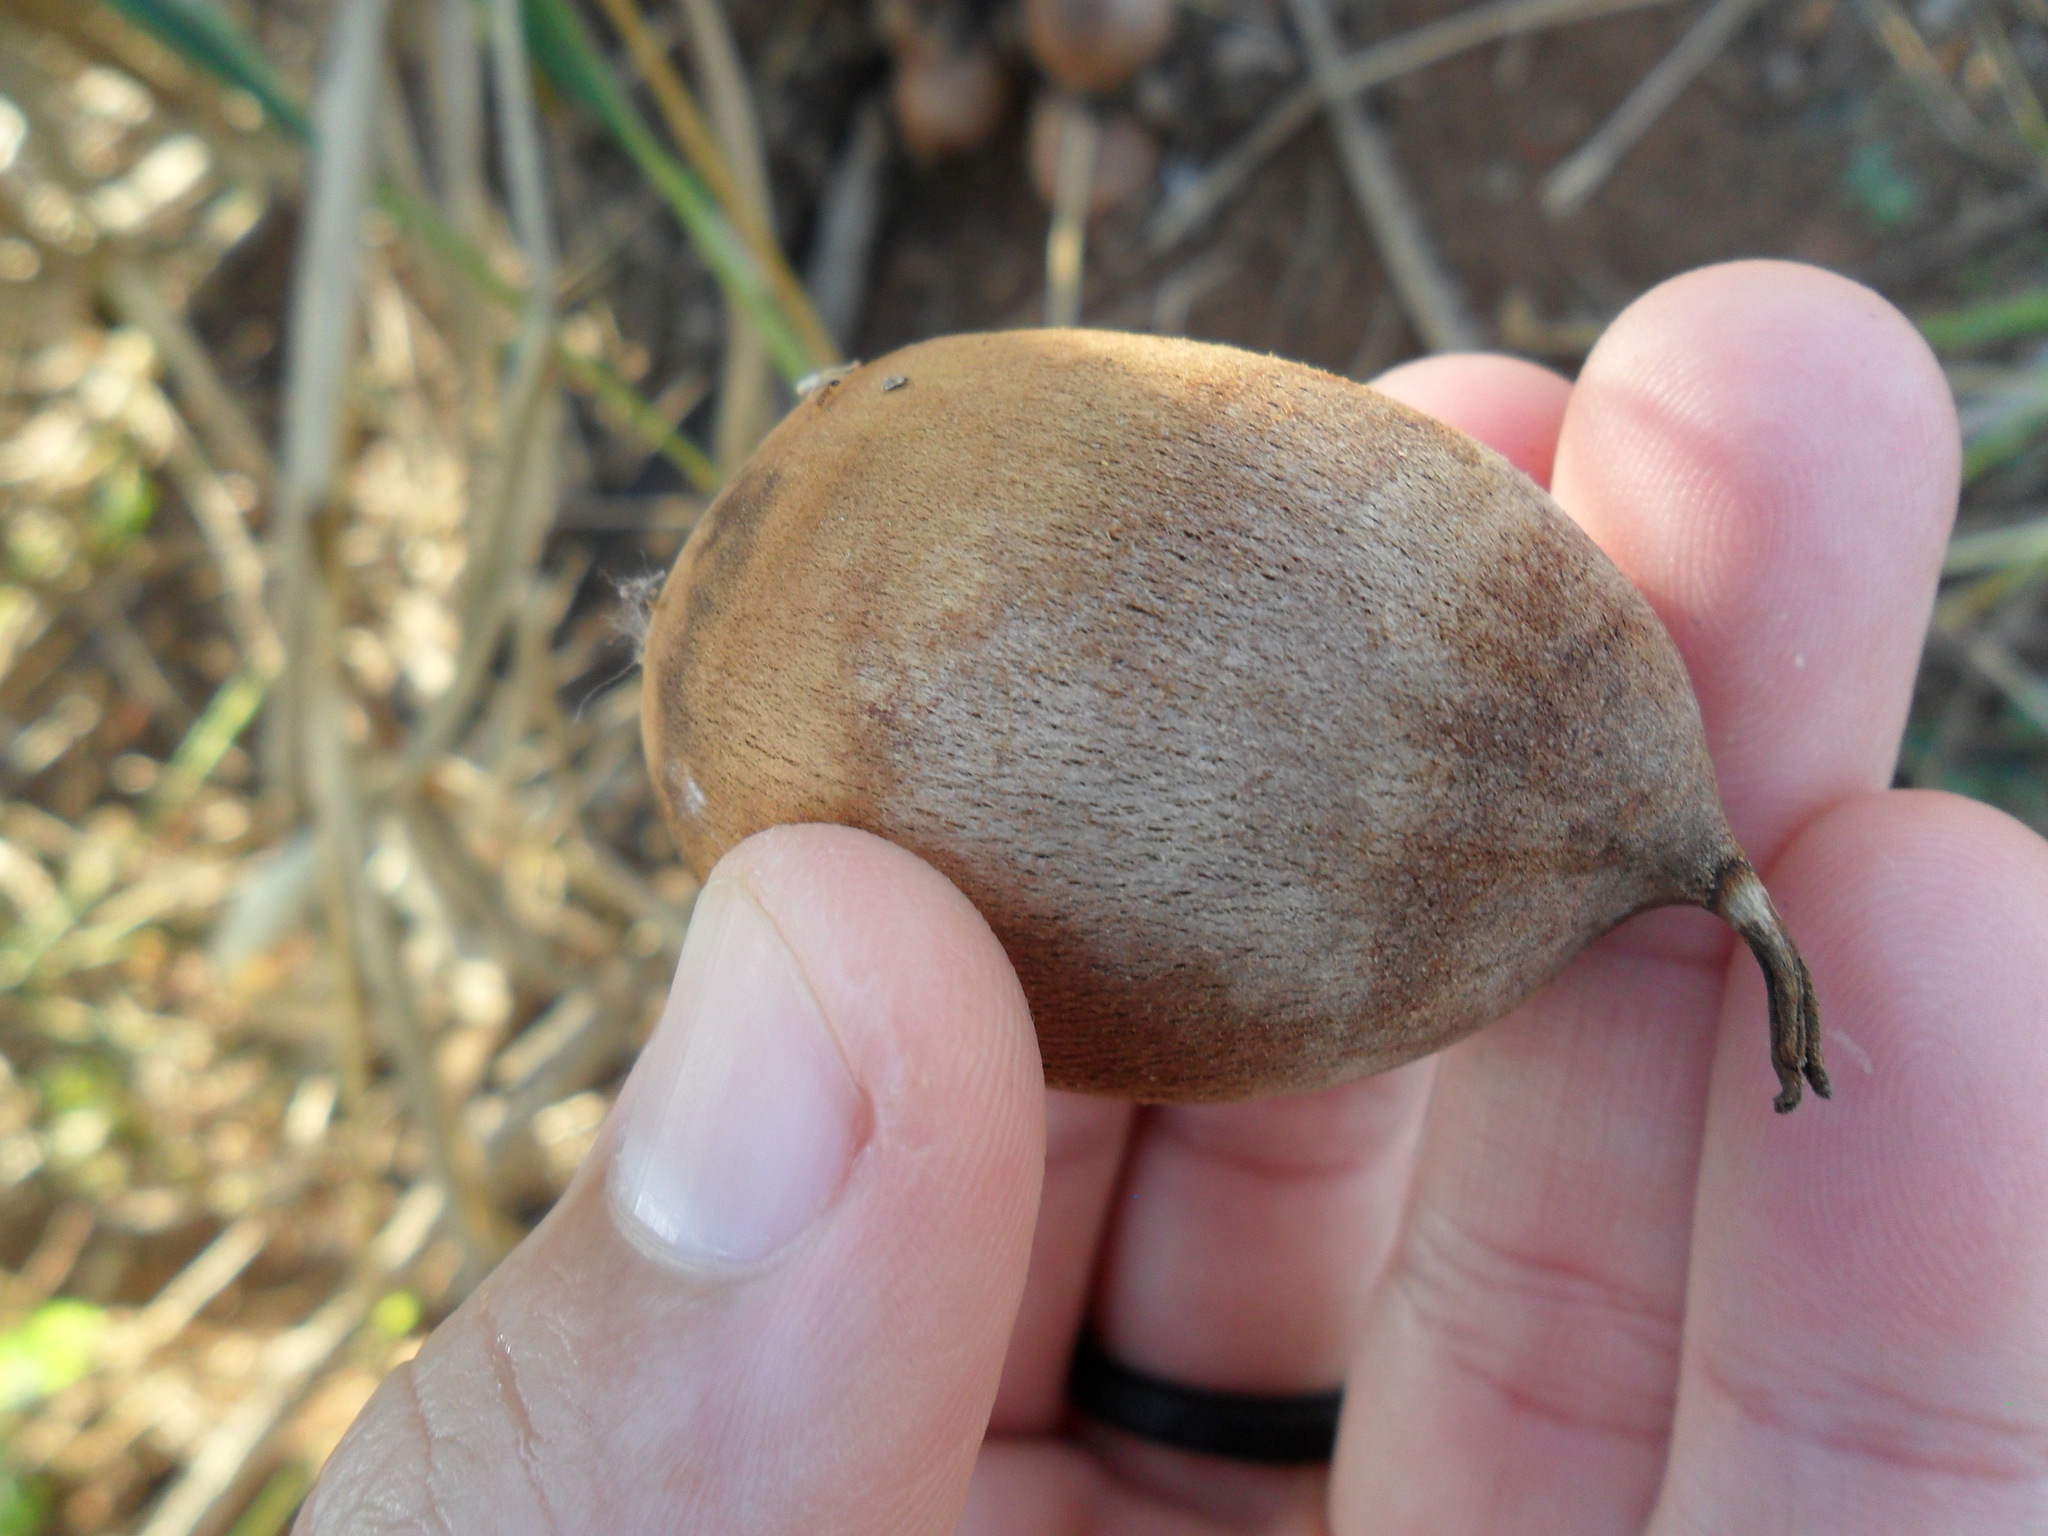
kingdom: Plantae
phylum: Tracheophyta
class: Liliopsida
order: Arecales
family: Arecaceae
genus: Attalea
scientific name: Attalea geraensis
